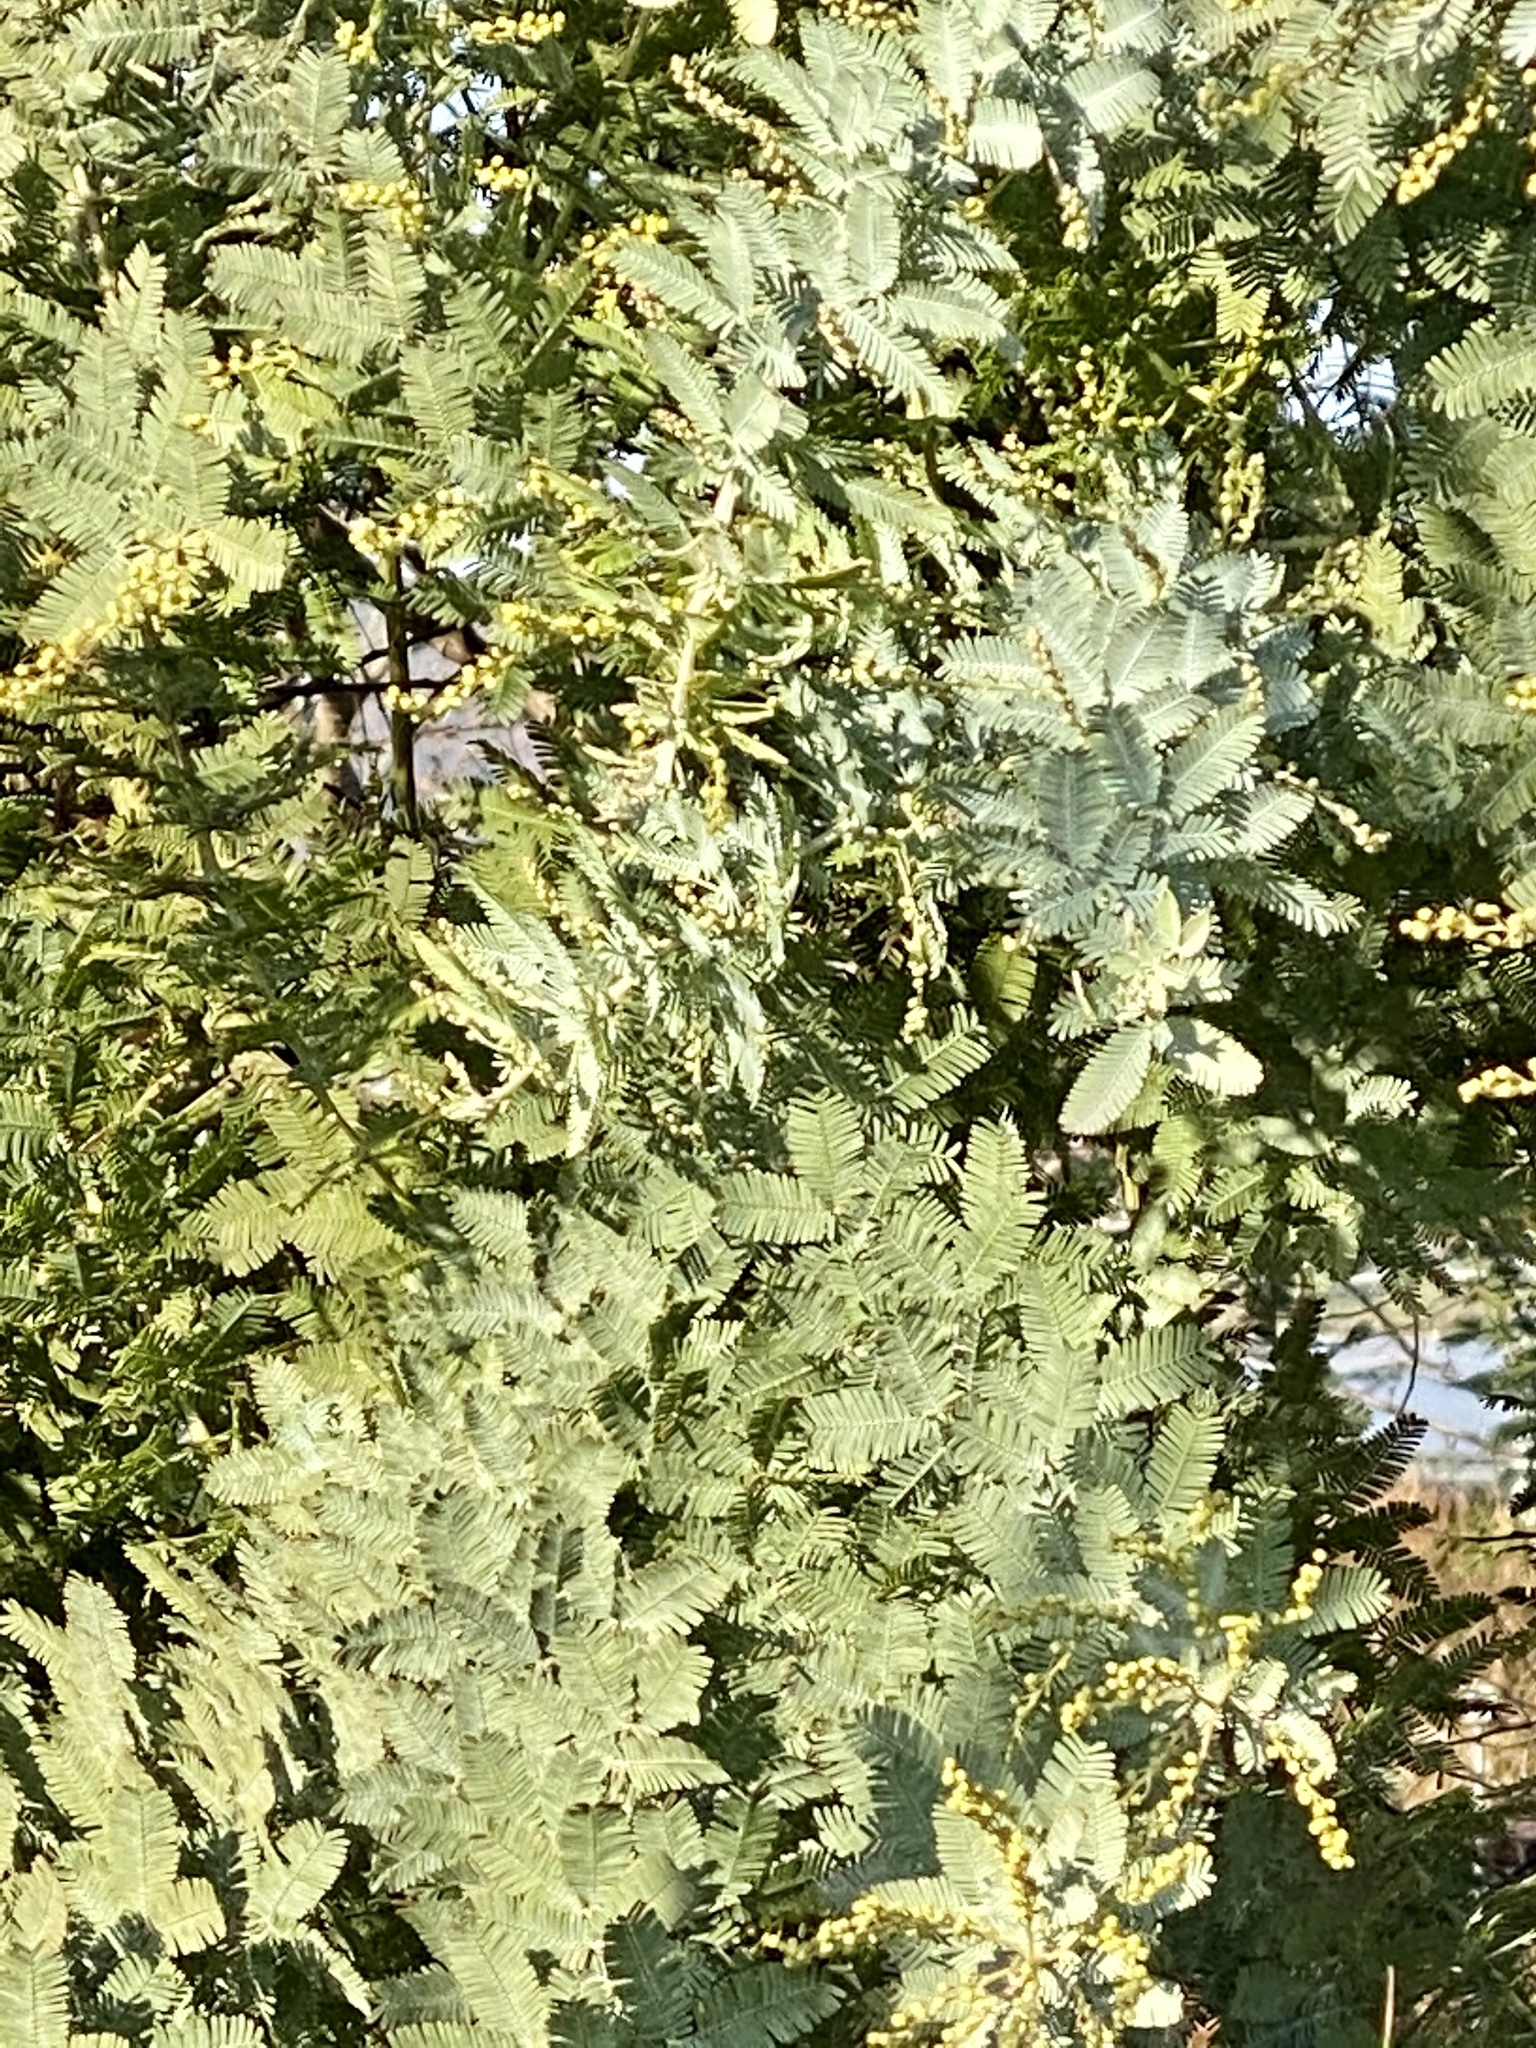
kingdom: Plantae
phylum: Tracheophyta
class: Magnoliopsida
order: Fabales
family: Fabaceae
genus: Acacia
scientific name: Acacia baileyana
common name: Cootamundra wattle
